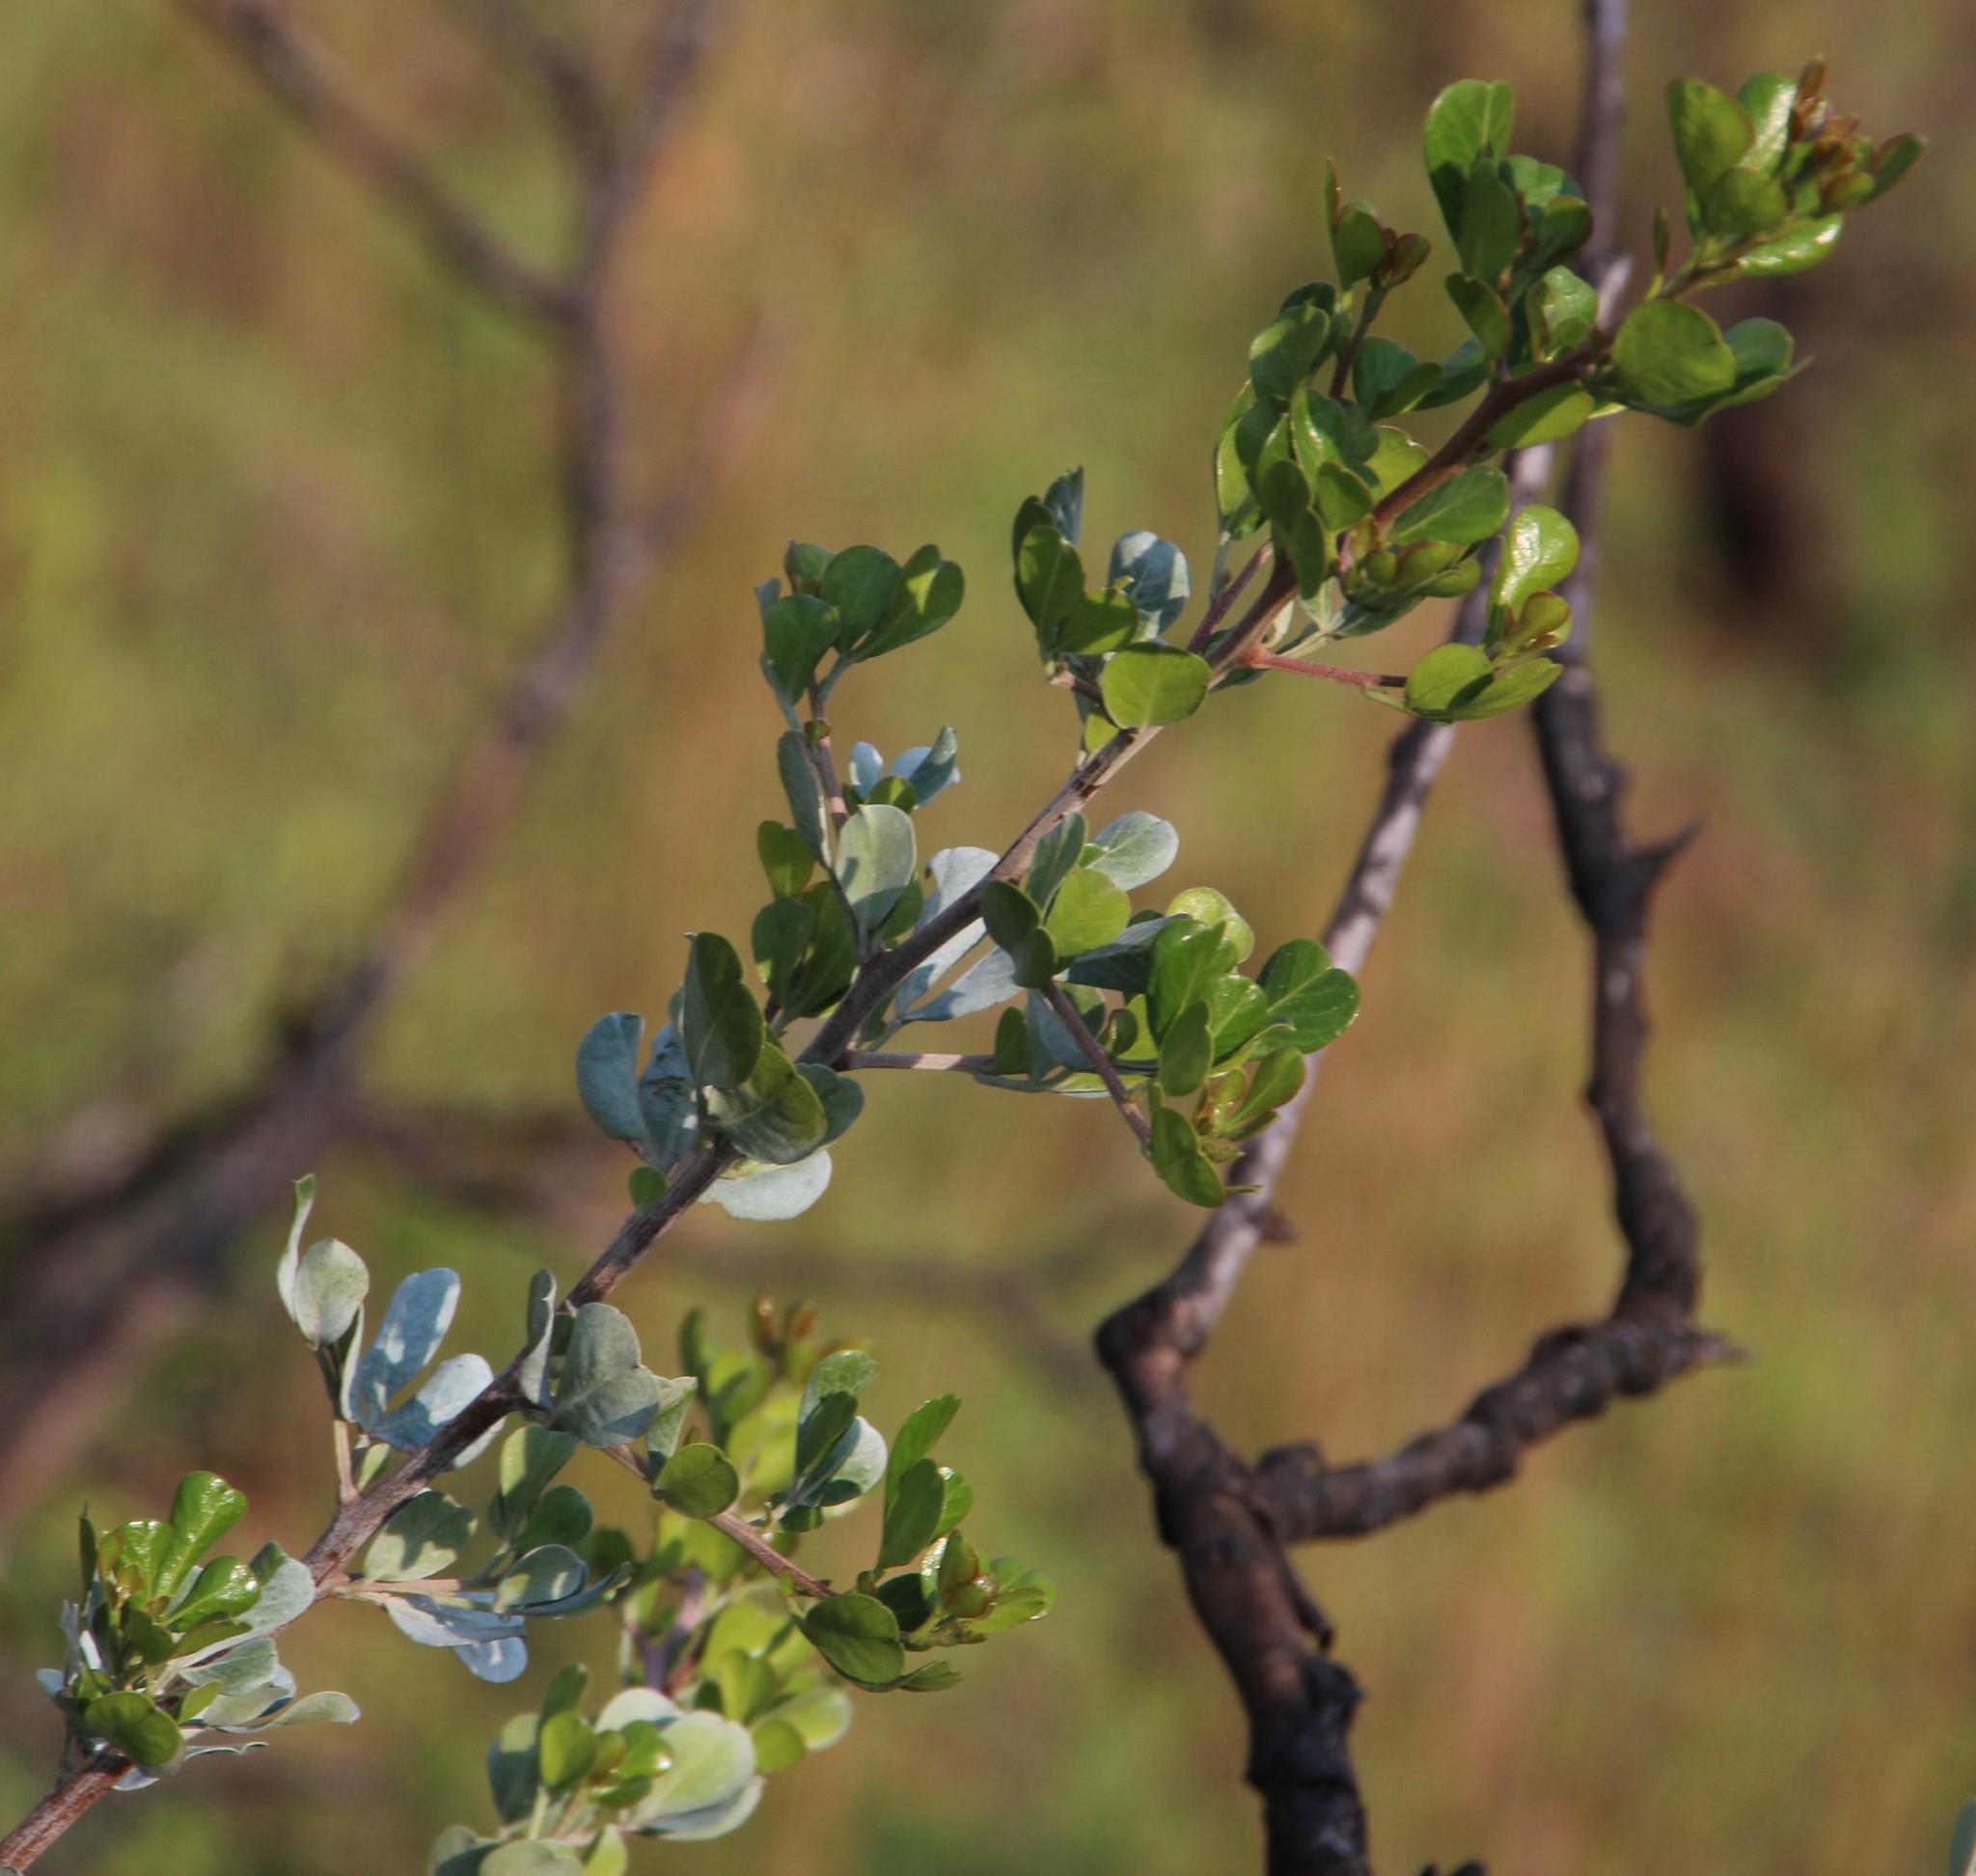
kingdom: Plantae
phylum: Tracheophyta
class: Magnoliopsida
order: Sapindales
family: Anacardiaceae
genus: Searsia
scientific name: Searsia glauca
